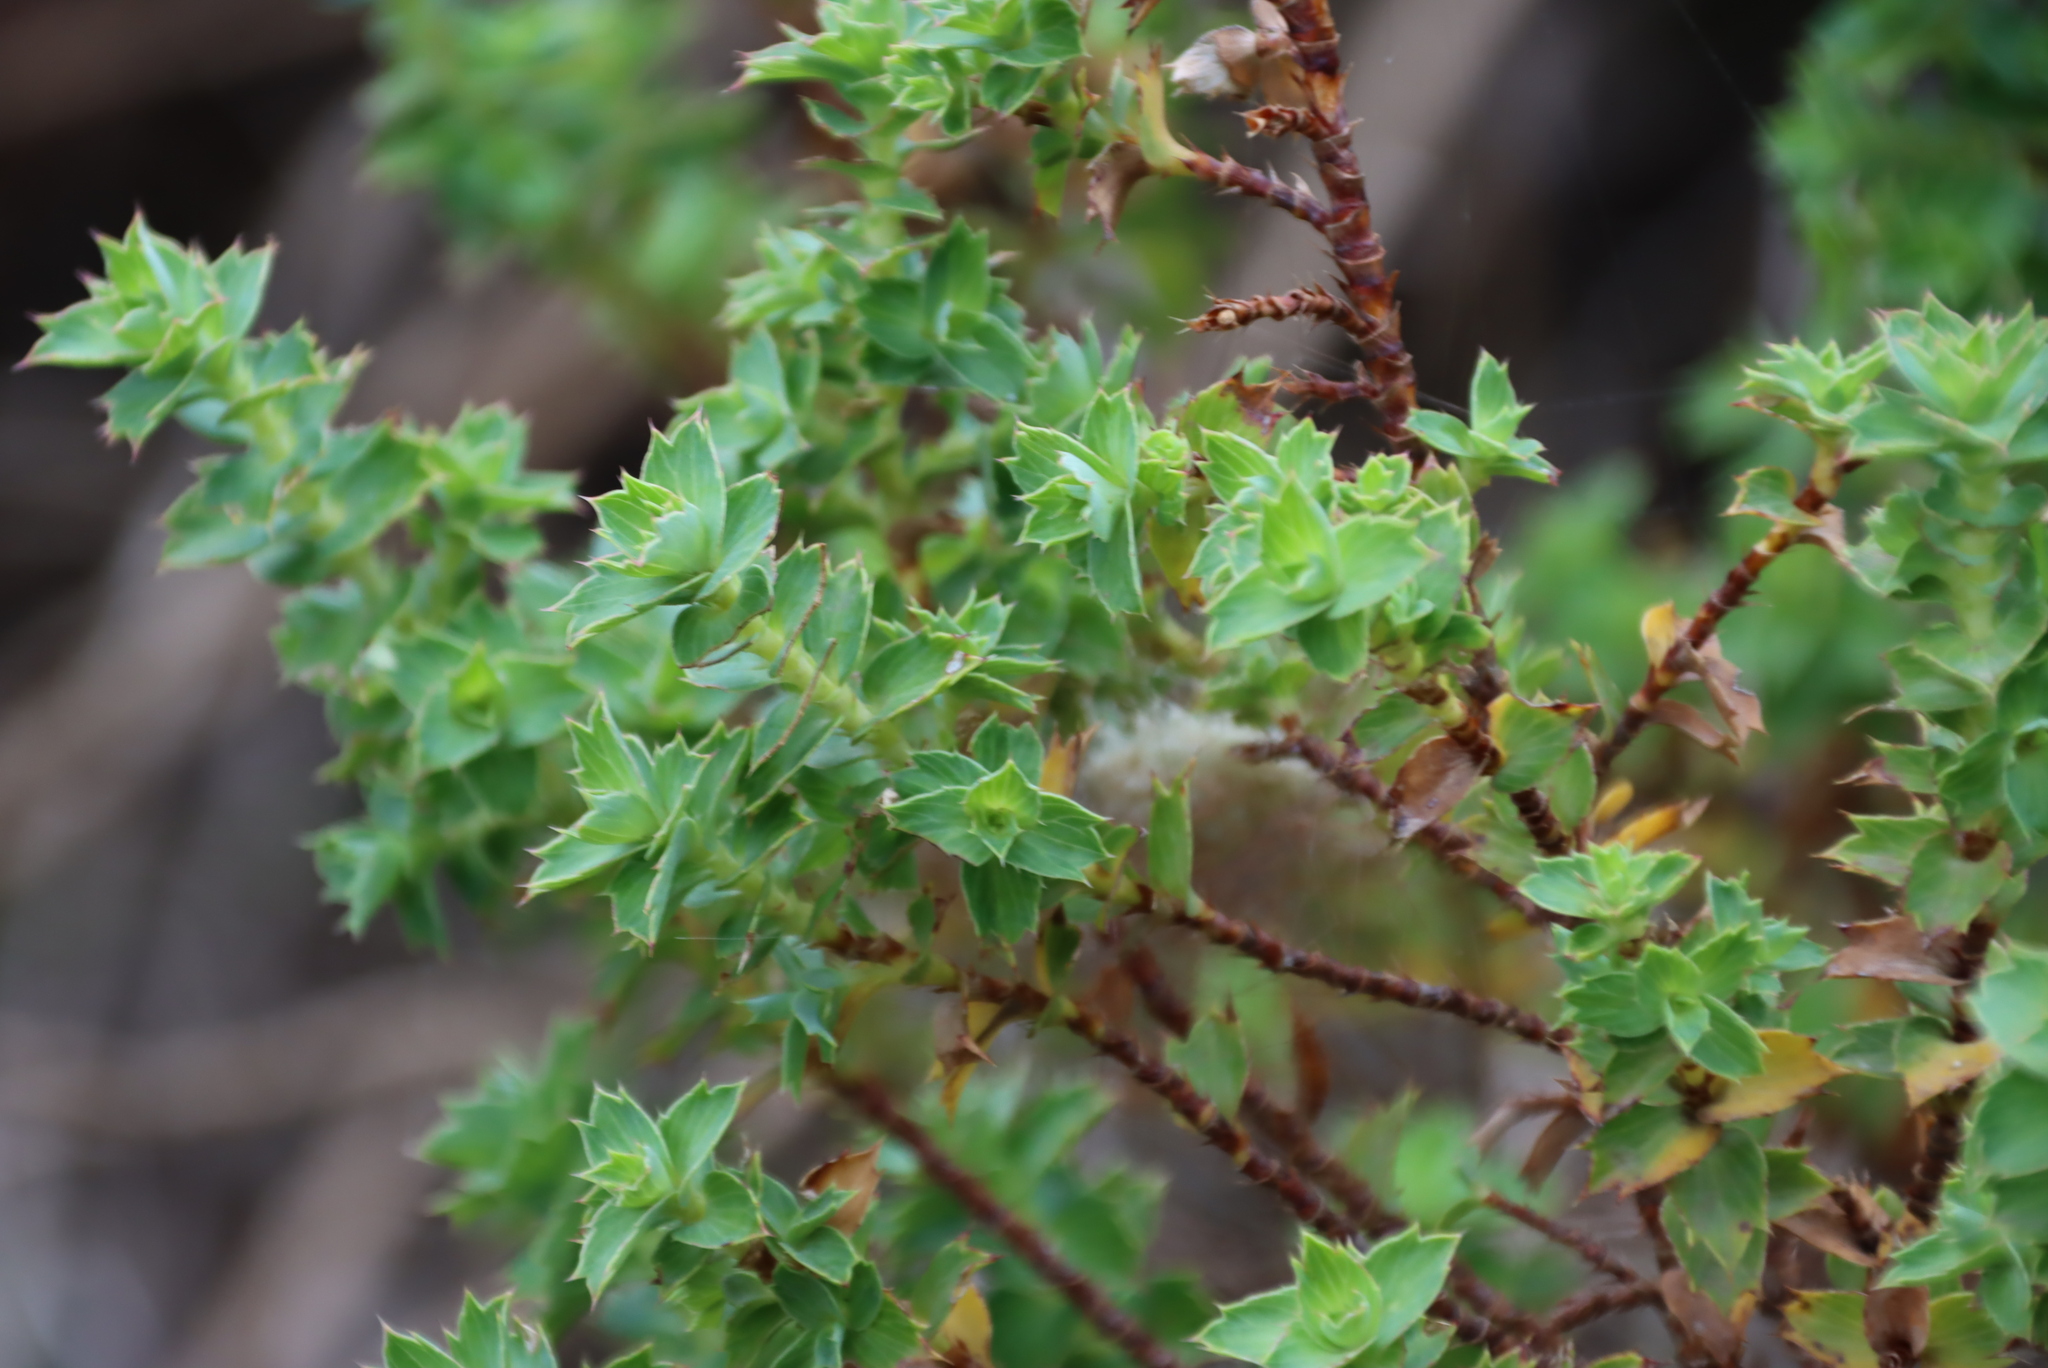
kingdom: Plantae
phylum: Tracheophyta
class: Magnoliopsida
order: Rosales
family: Rosaceae
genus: Cliffortia
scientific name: Cliffortia ilicifolia
